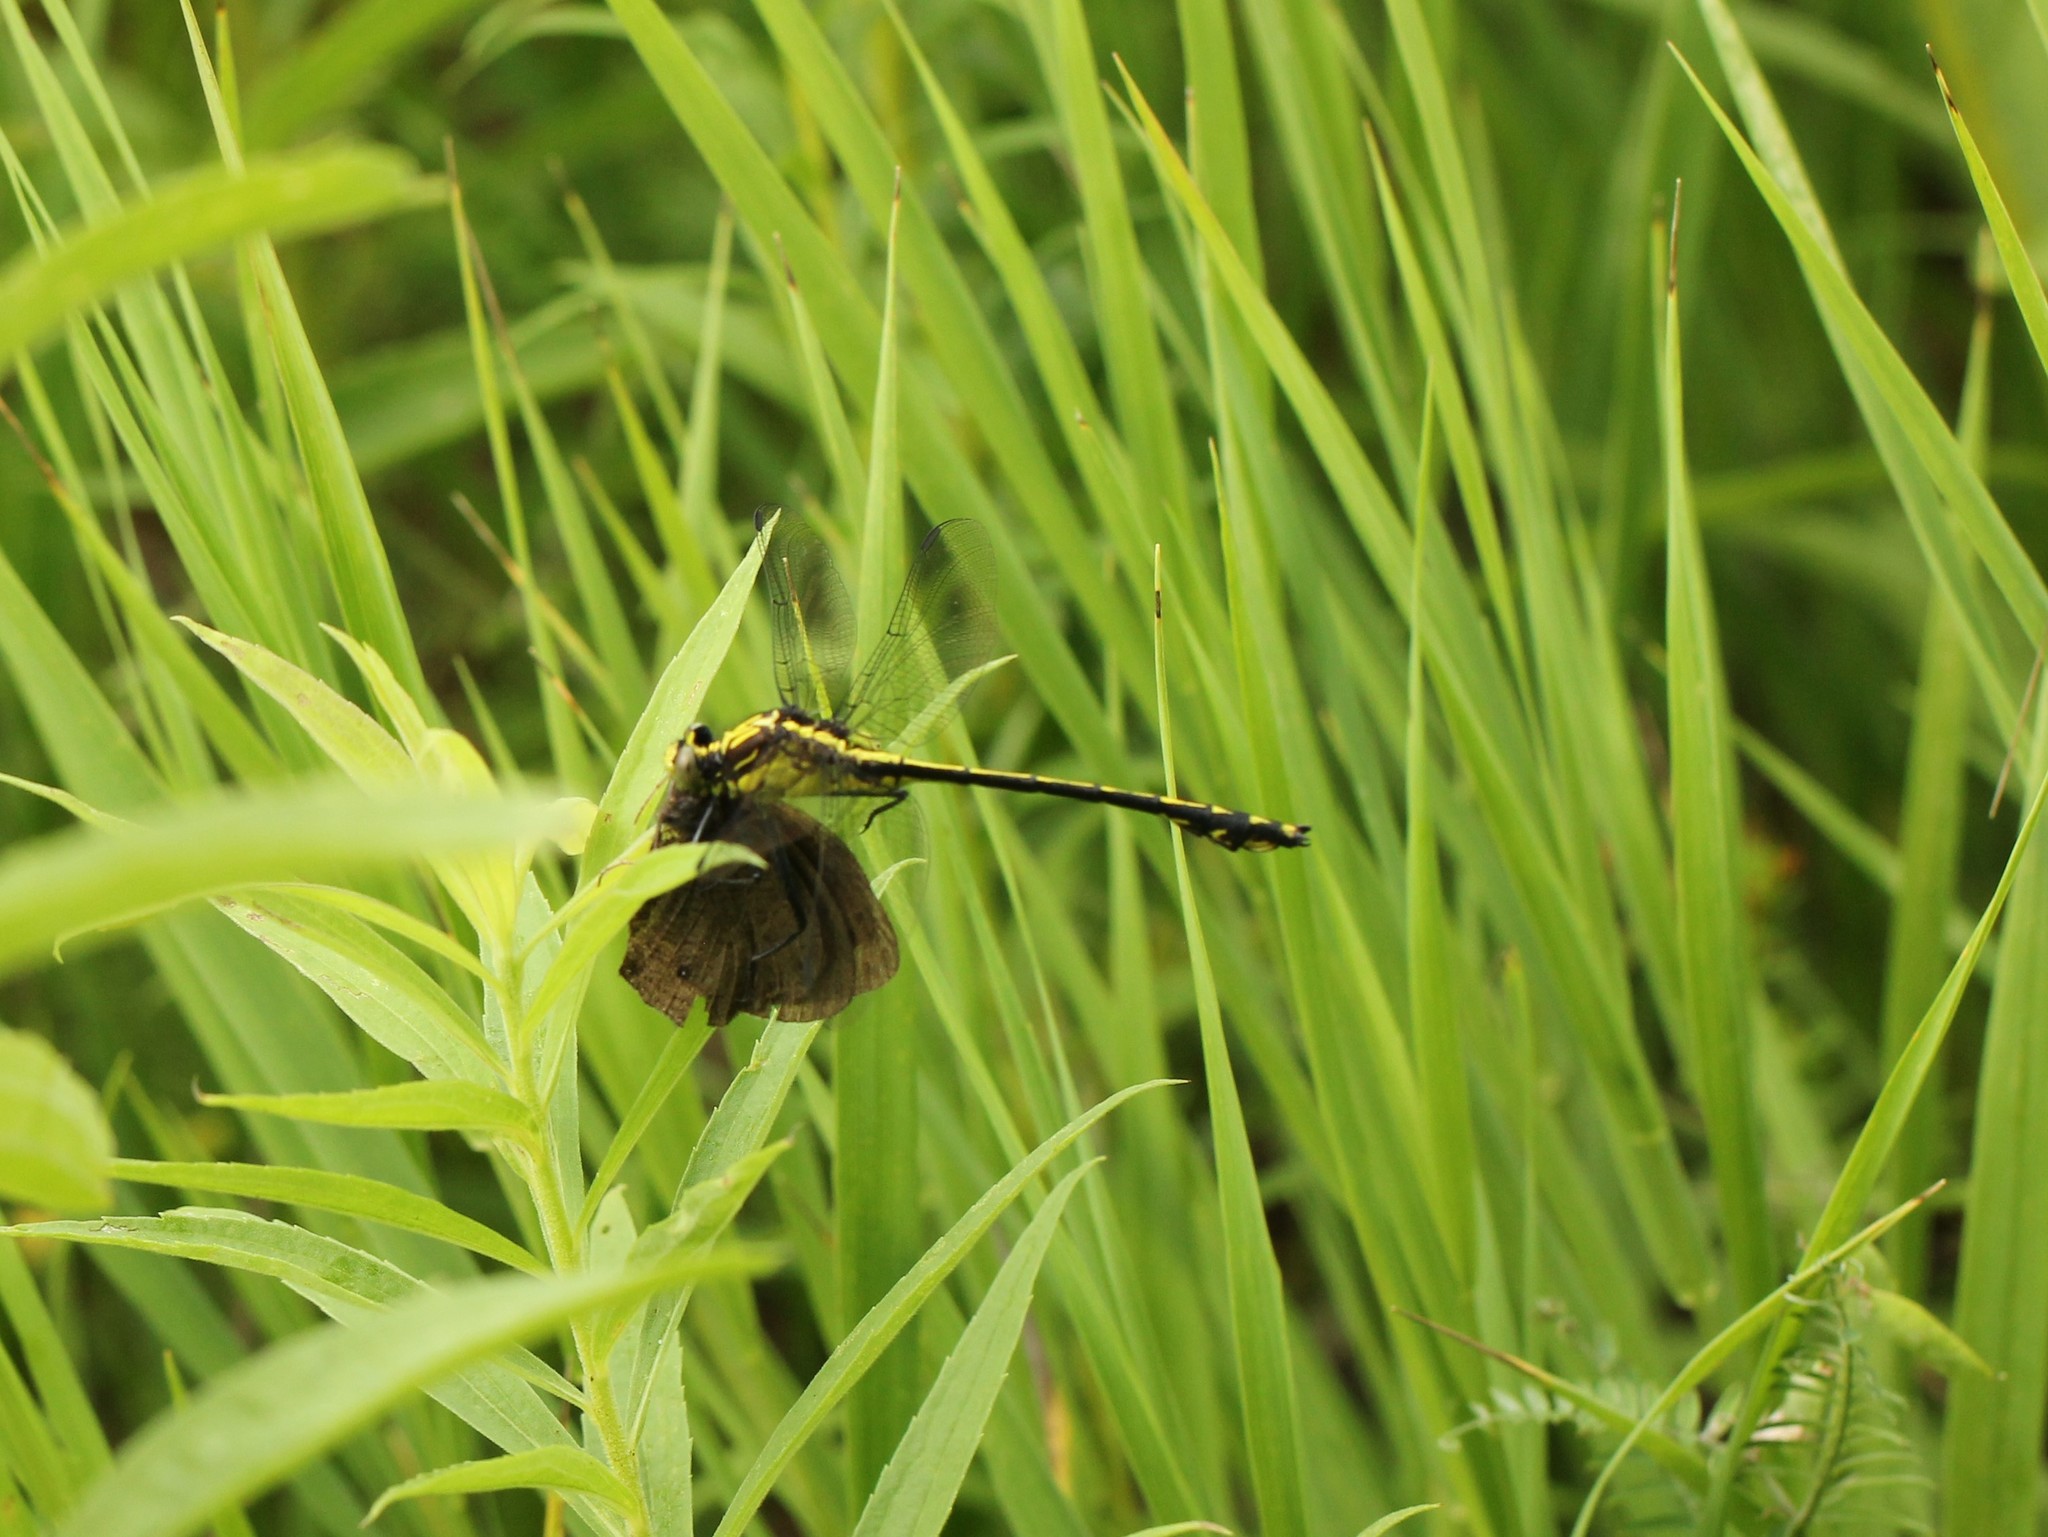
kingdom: Animalia
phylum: Arthropoda
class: Insecta
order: Lepidoptera
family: Nymphalidae
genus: Cercyonis
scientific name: Cercyonis pegala
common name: Common wood-nymph
